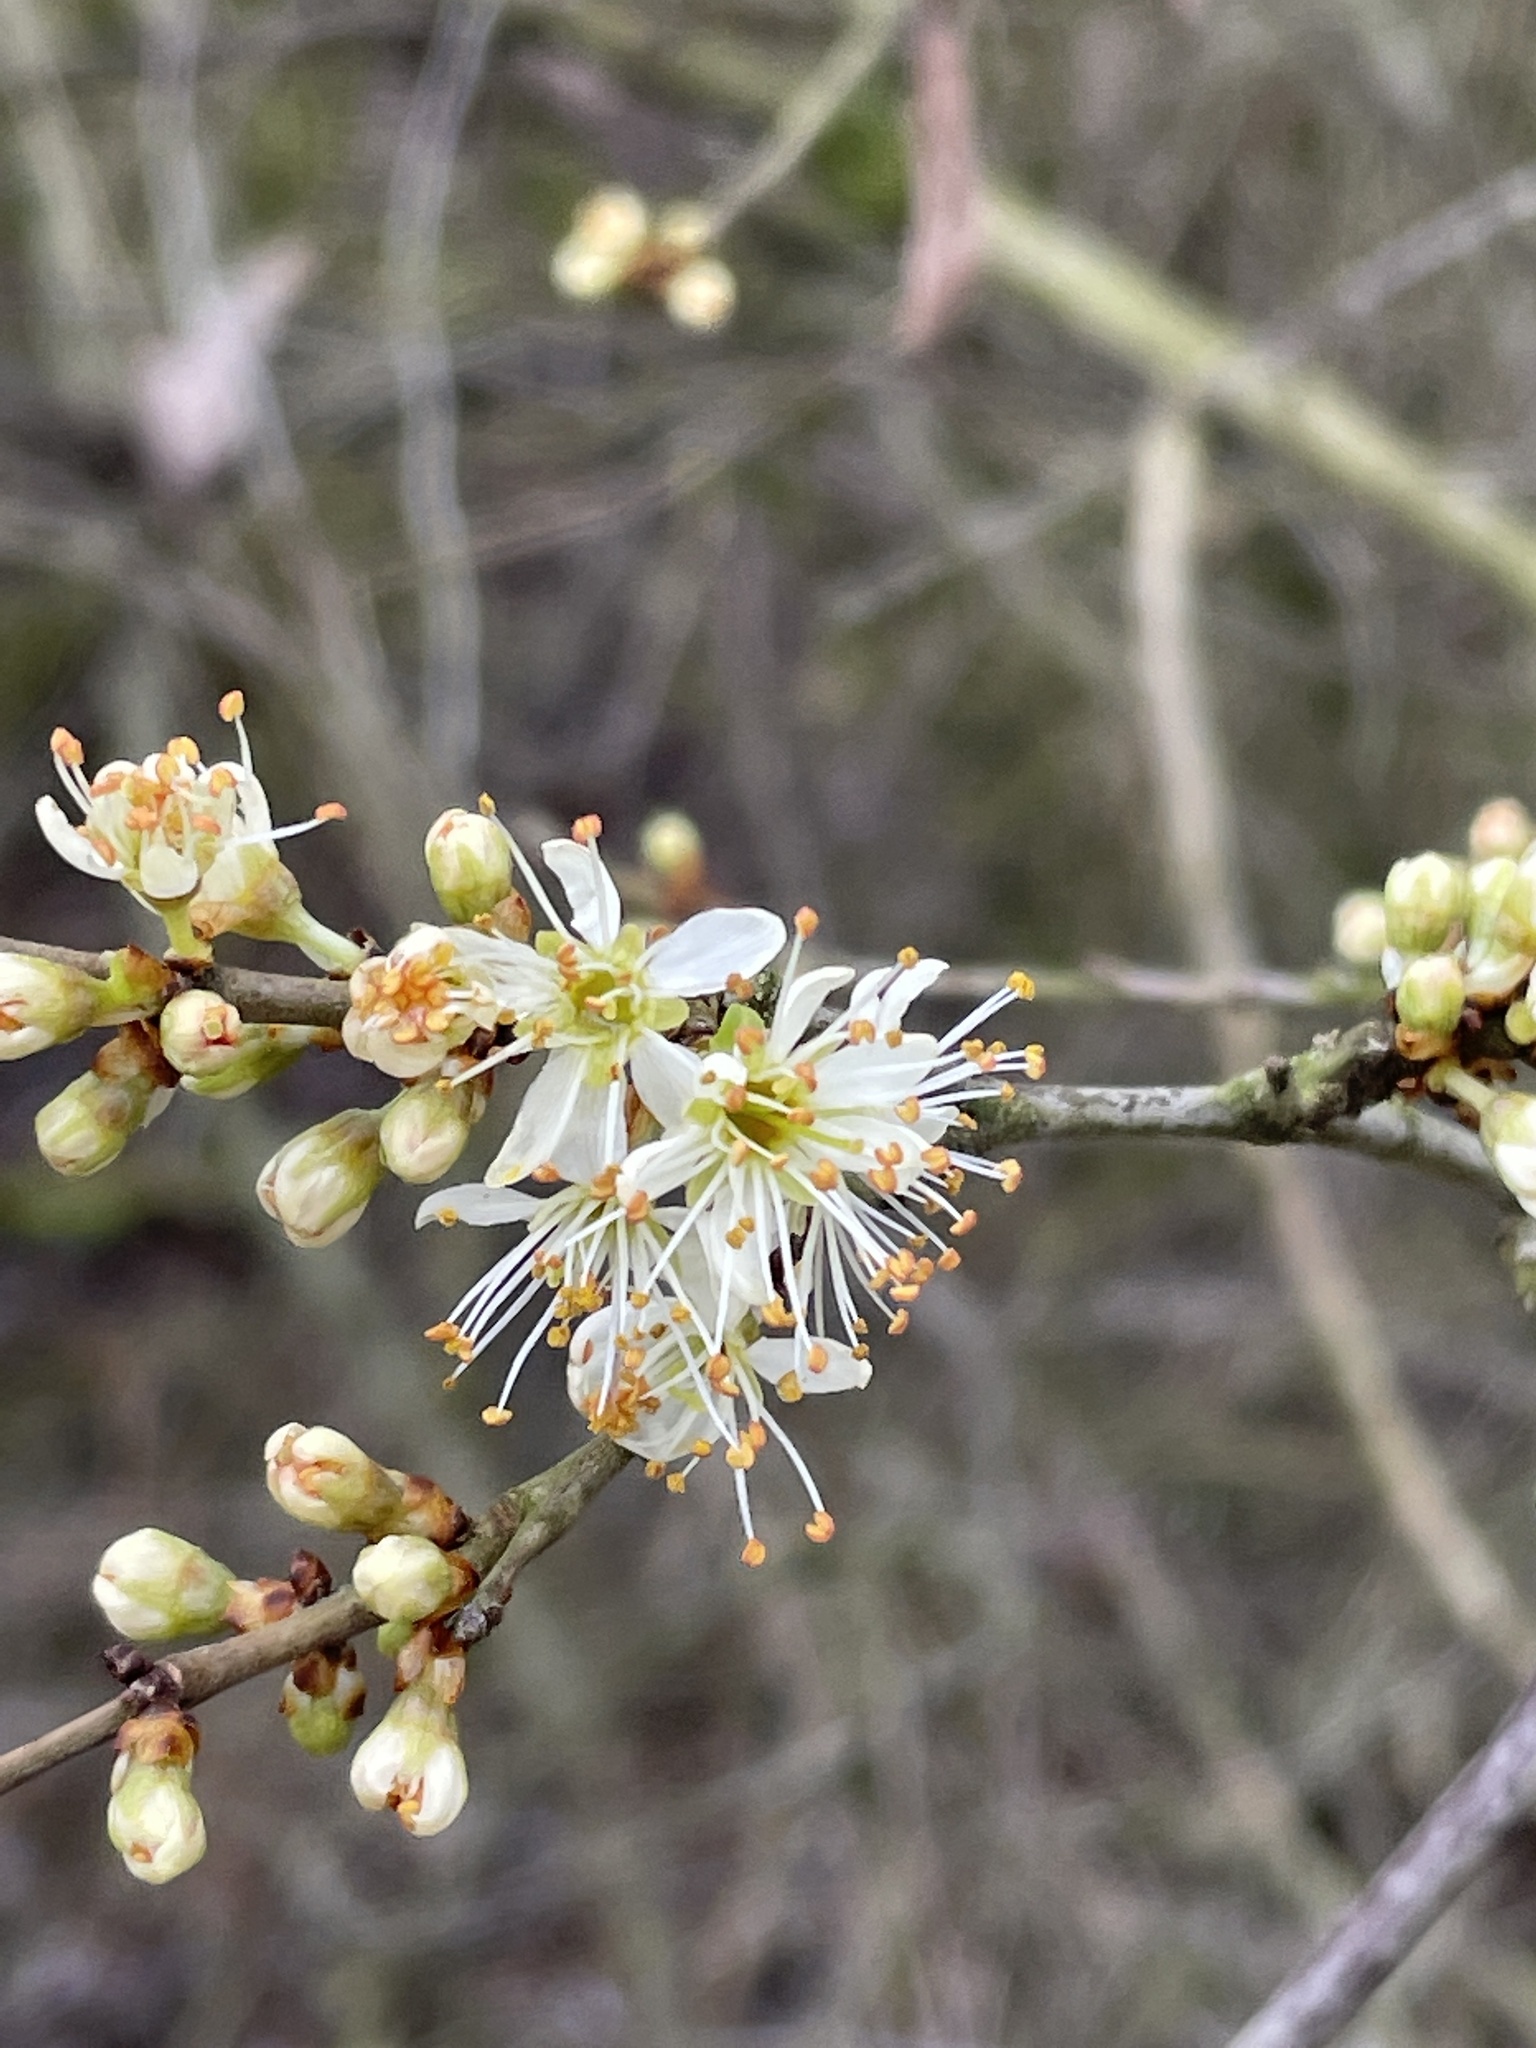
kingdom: Plantae
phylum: Tracheophyta
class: Magnoliopsida
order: Rosales
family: Rosaceae
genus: Prunus
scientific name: Prunus spinosa
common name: Blackthorn
